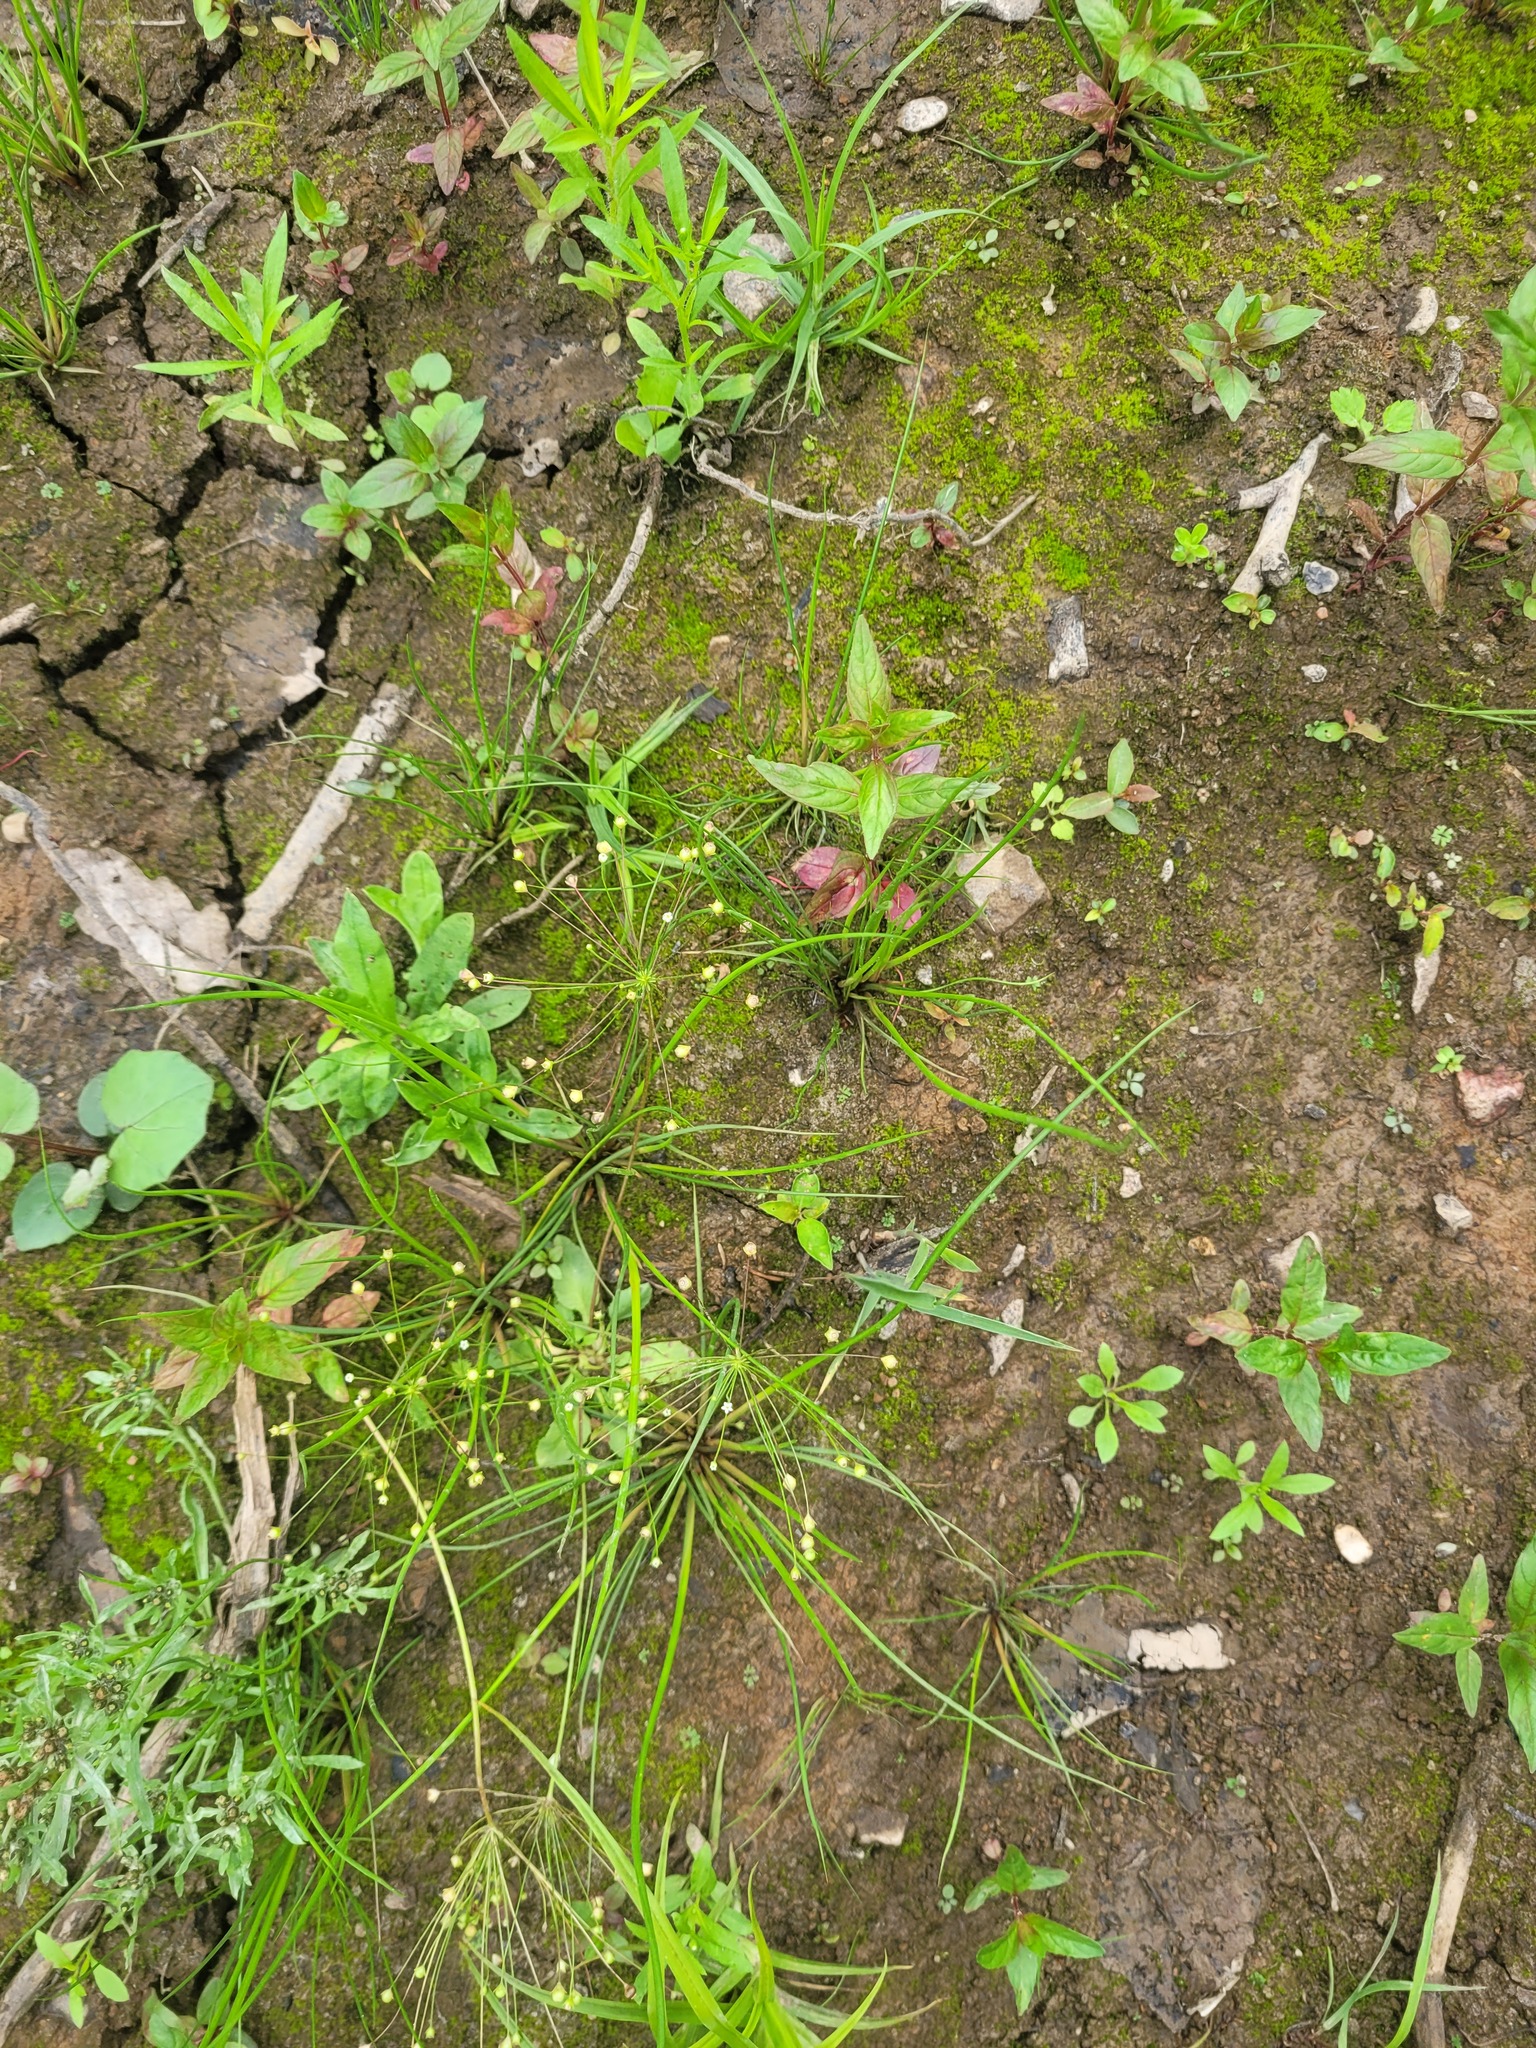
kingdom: Plantae
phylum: Tracheophyta
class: Magnoliopsida
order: Ericales
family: Primulaceae
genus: Androsace
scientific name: Androsace filiformis
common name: Filiform rock jasmine
